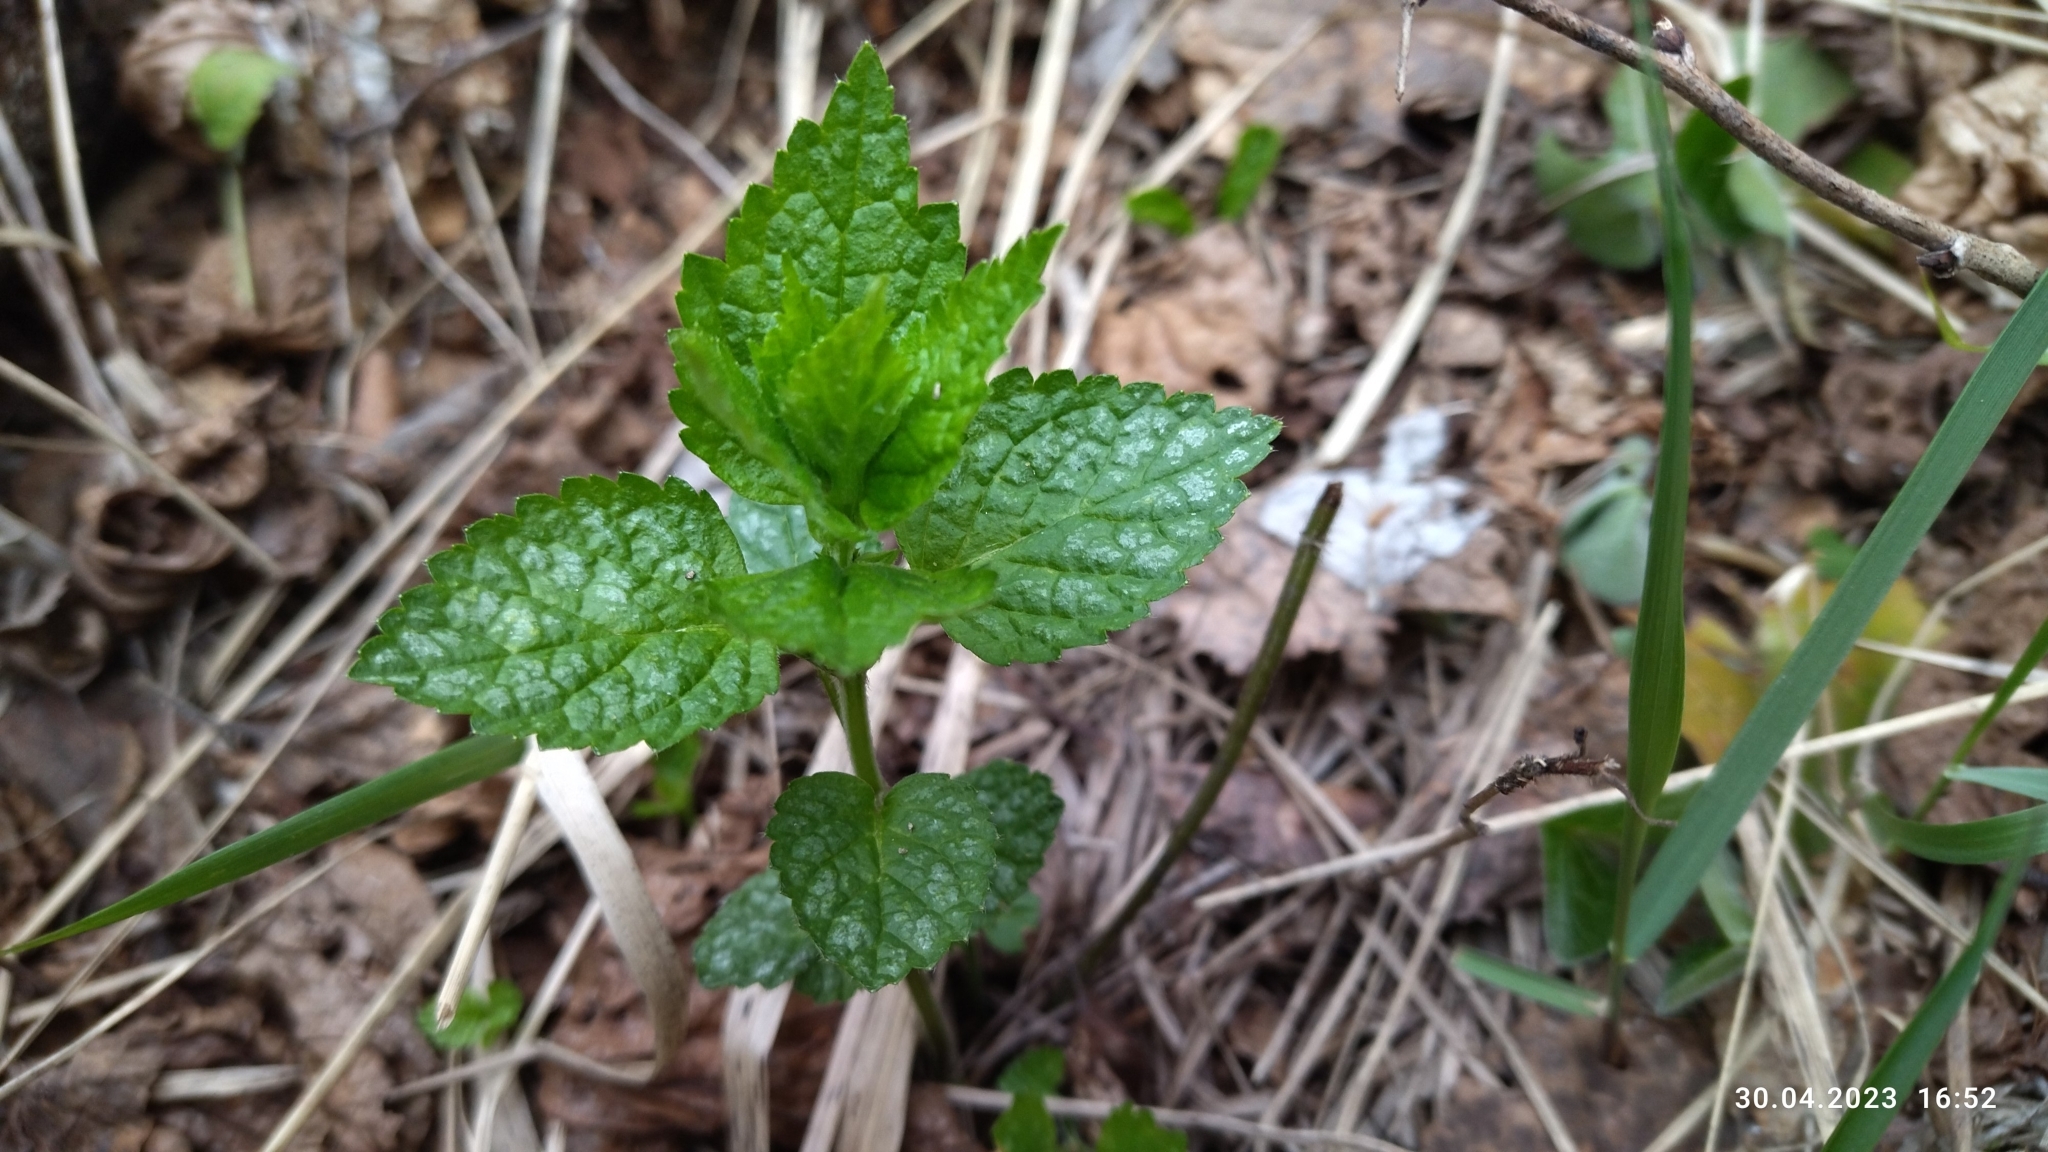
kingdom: Plantae
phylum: Tracheophyta
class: Magnoliopsida
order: Lamiales
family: Lamiaceae
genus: Lamium
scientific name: Lamium galeobdolon
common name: Yellow archangel
